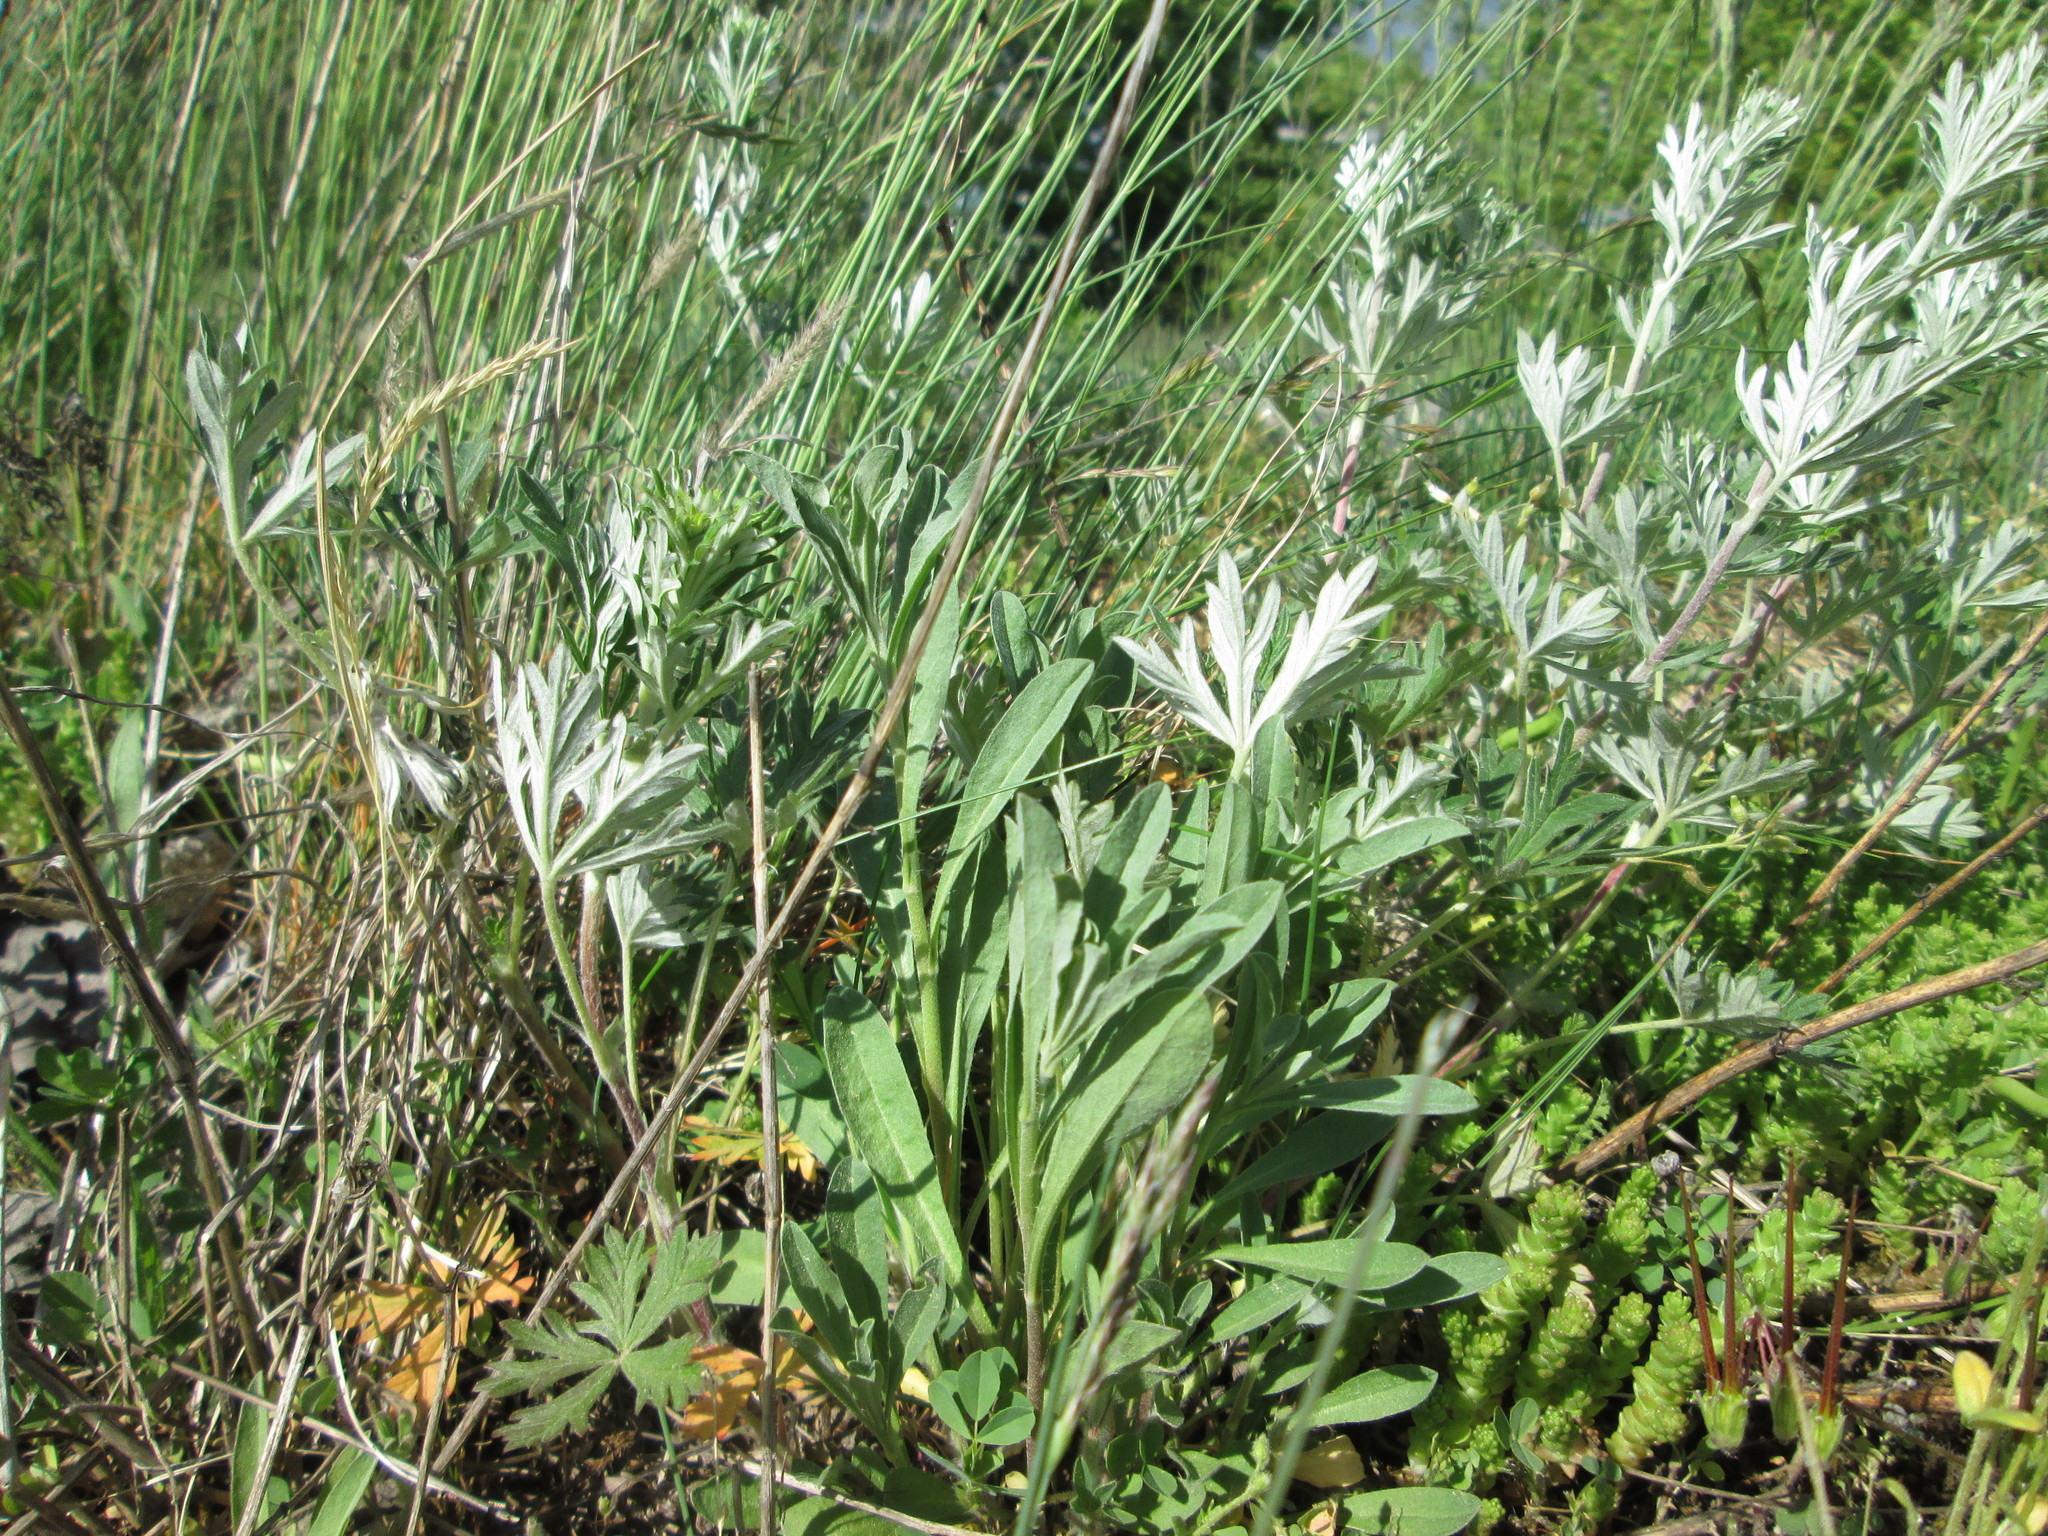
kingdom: Plantae
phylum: Tracheophyta
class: Magnoliopsida
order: Rosales
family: Rosaceae
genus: Potentilla
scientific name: Potentilla argentea
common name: Hoary cinquefoil
